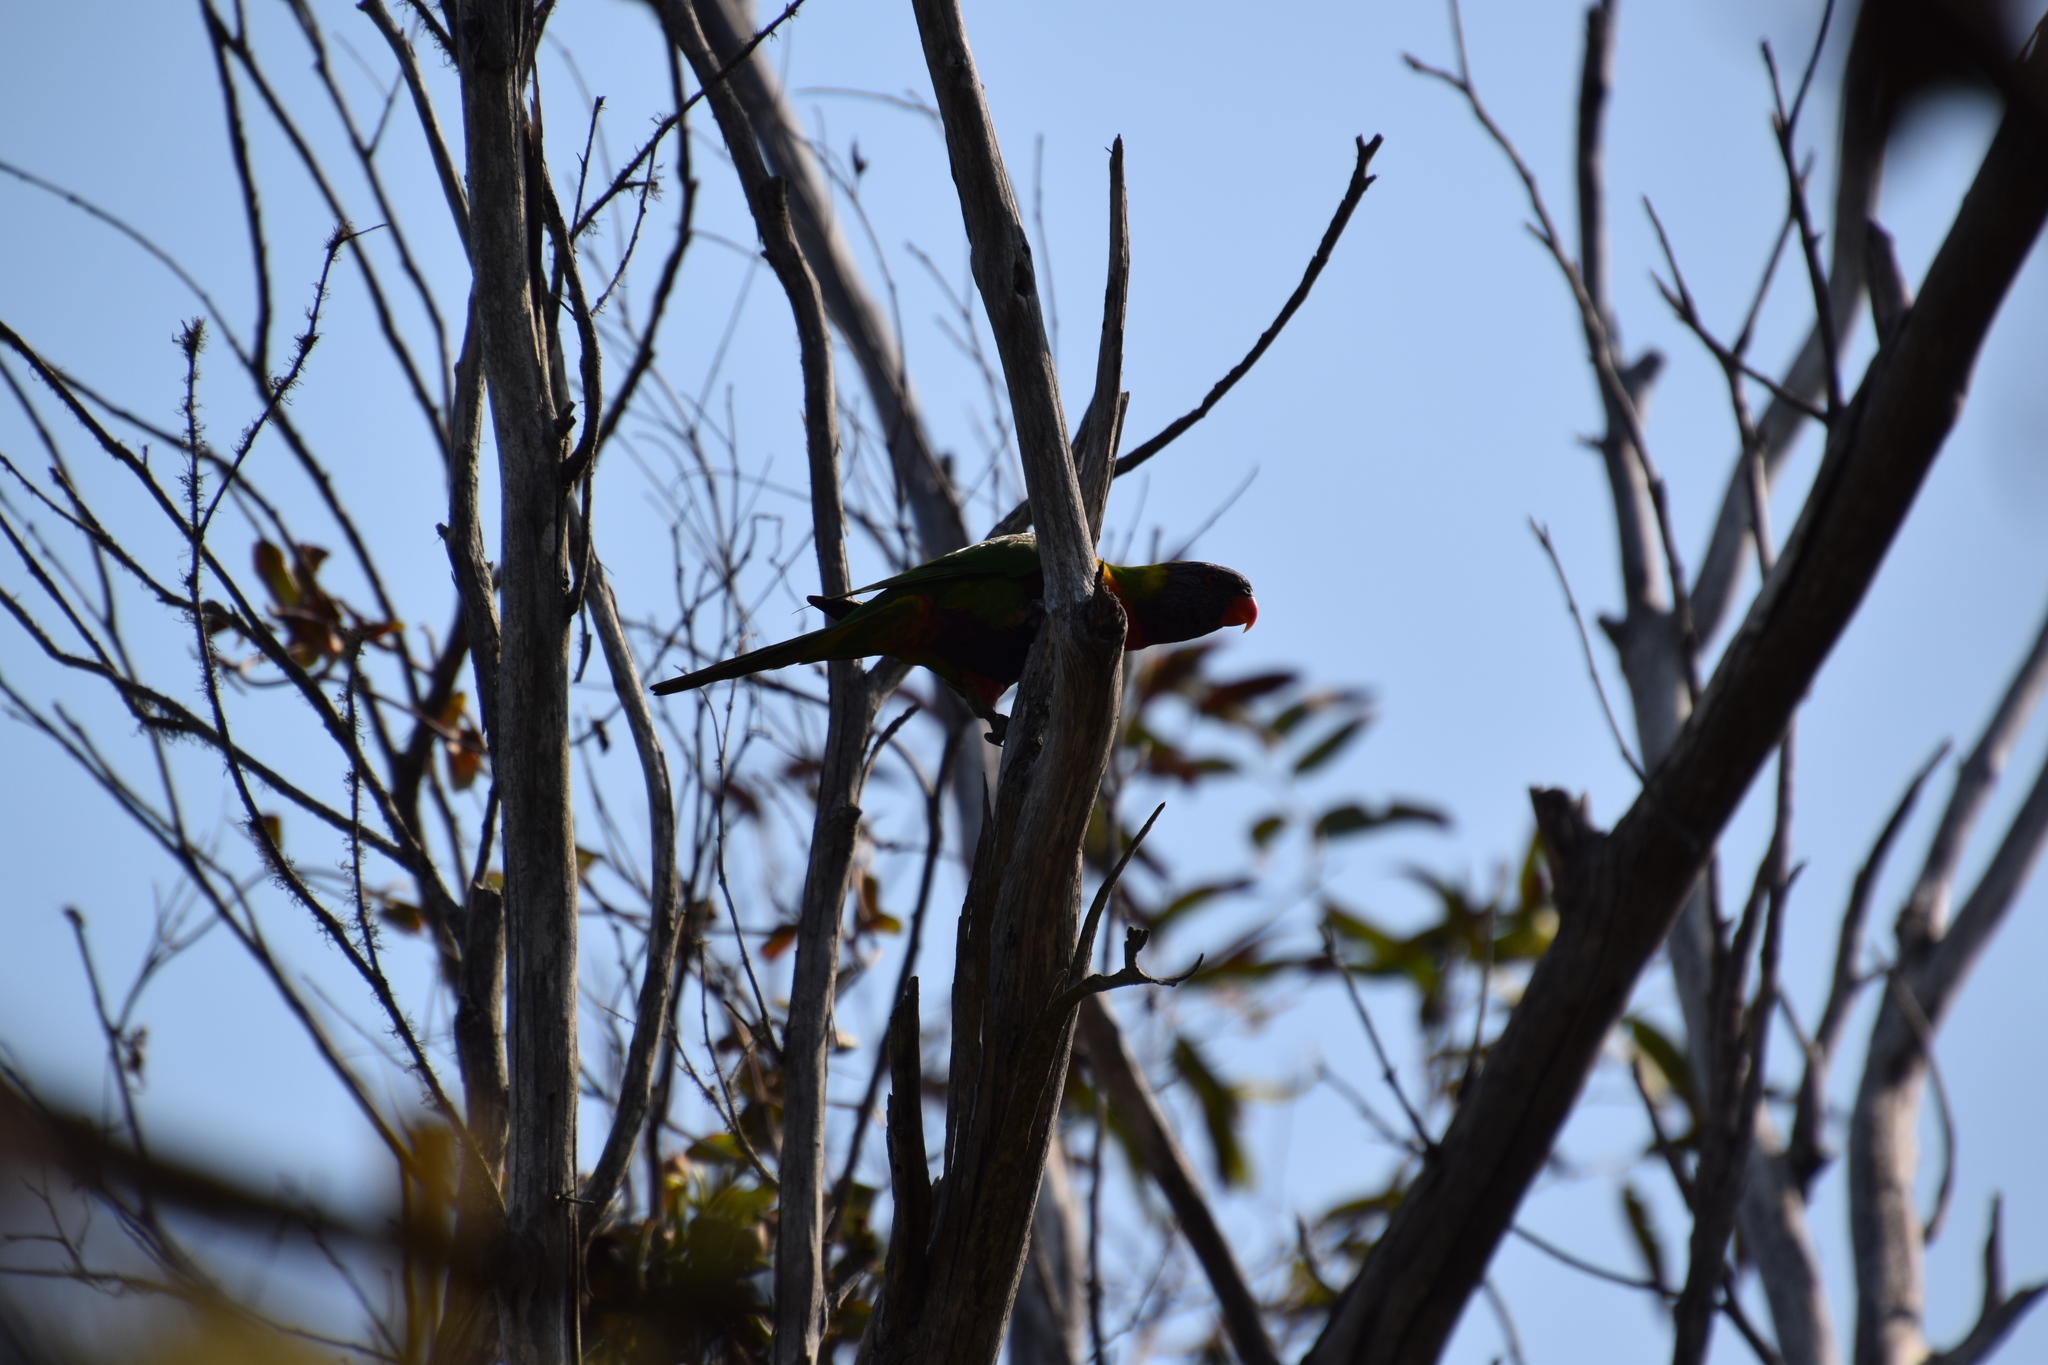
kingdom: Animalia
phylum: Chordata
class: Aves
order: Psittaciformes
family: Psittacidae
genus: Trichoglossus
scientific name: Trichoglossus haematodus
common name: Coconut lorikeet
